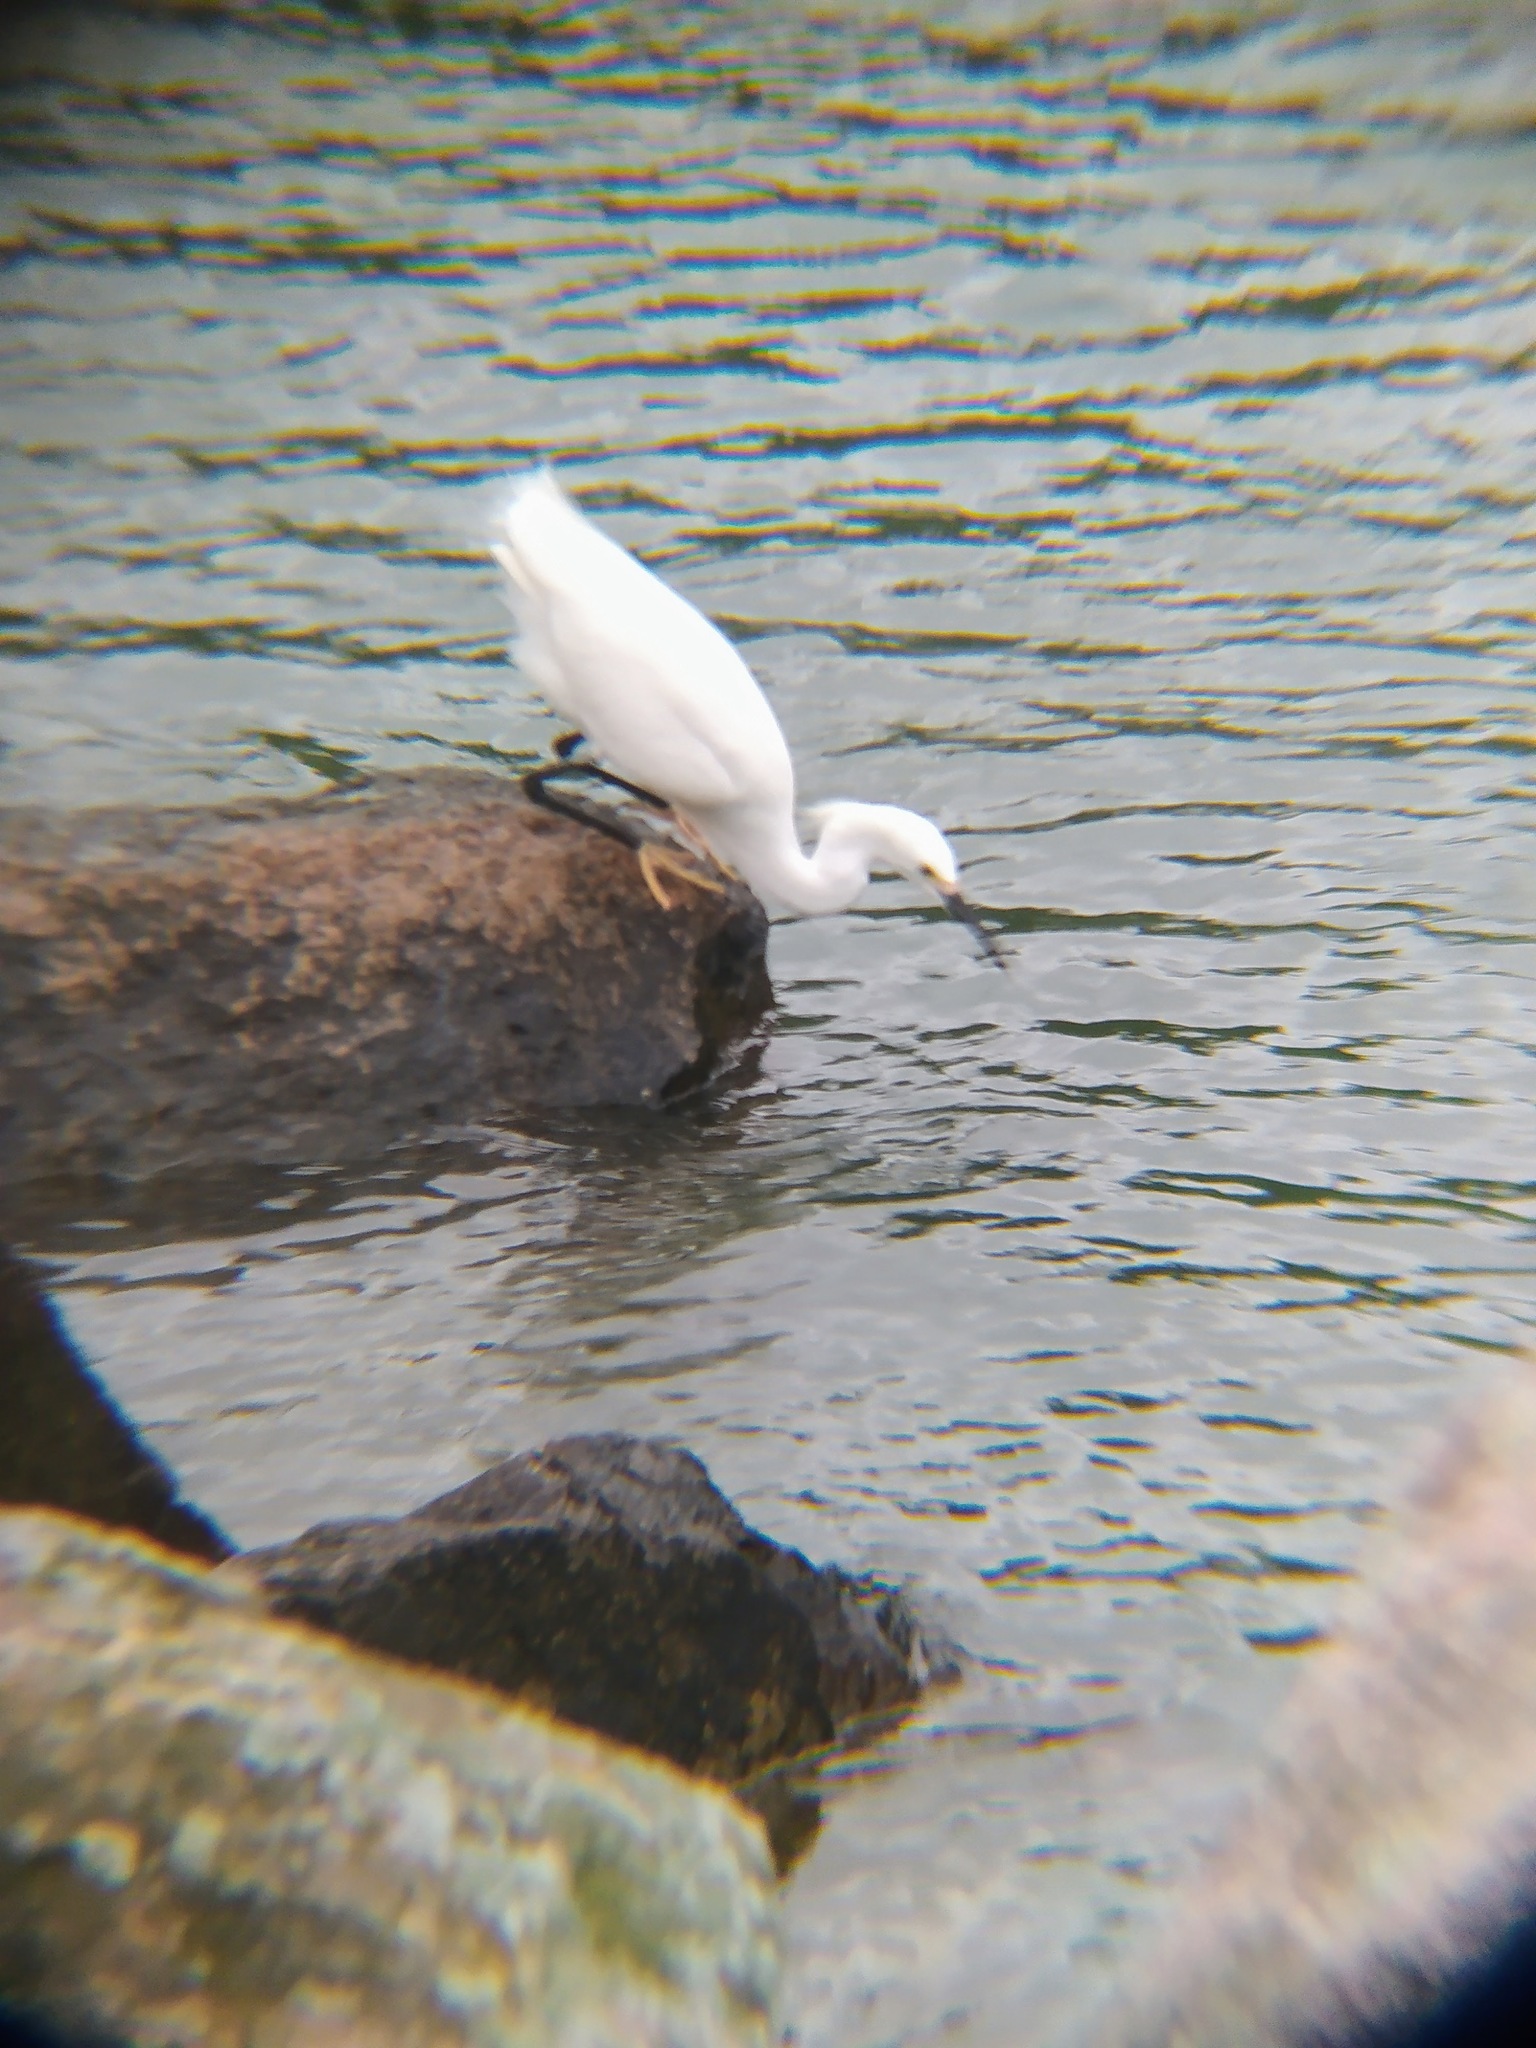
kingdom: Animalia
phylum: Chordata
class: Aves
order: Pelecaniformes
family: Ardeidae
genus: Egretta
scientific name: Egretta thula
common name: Snowy egret
